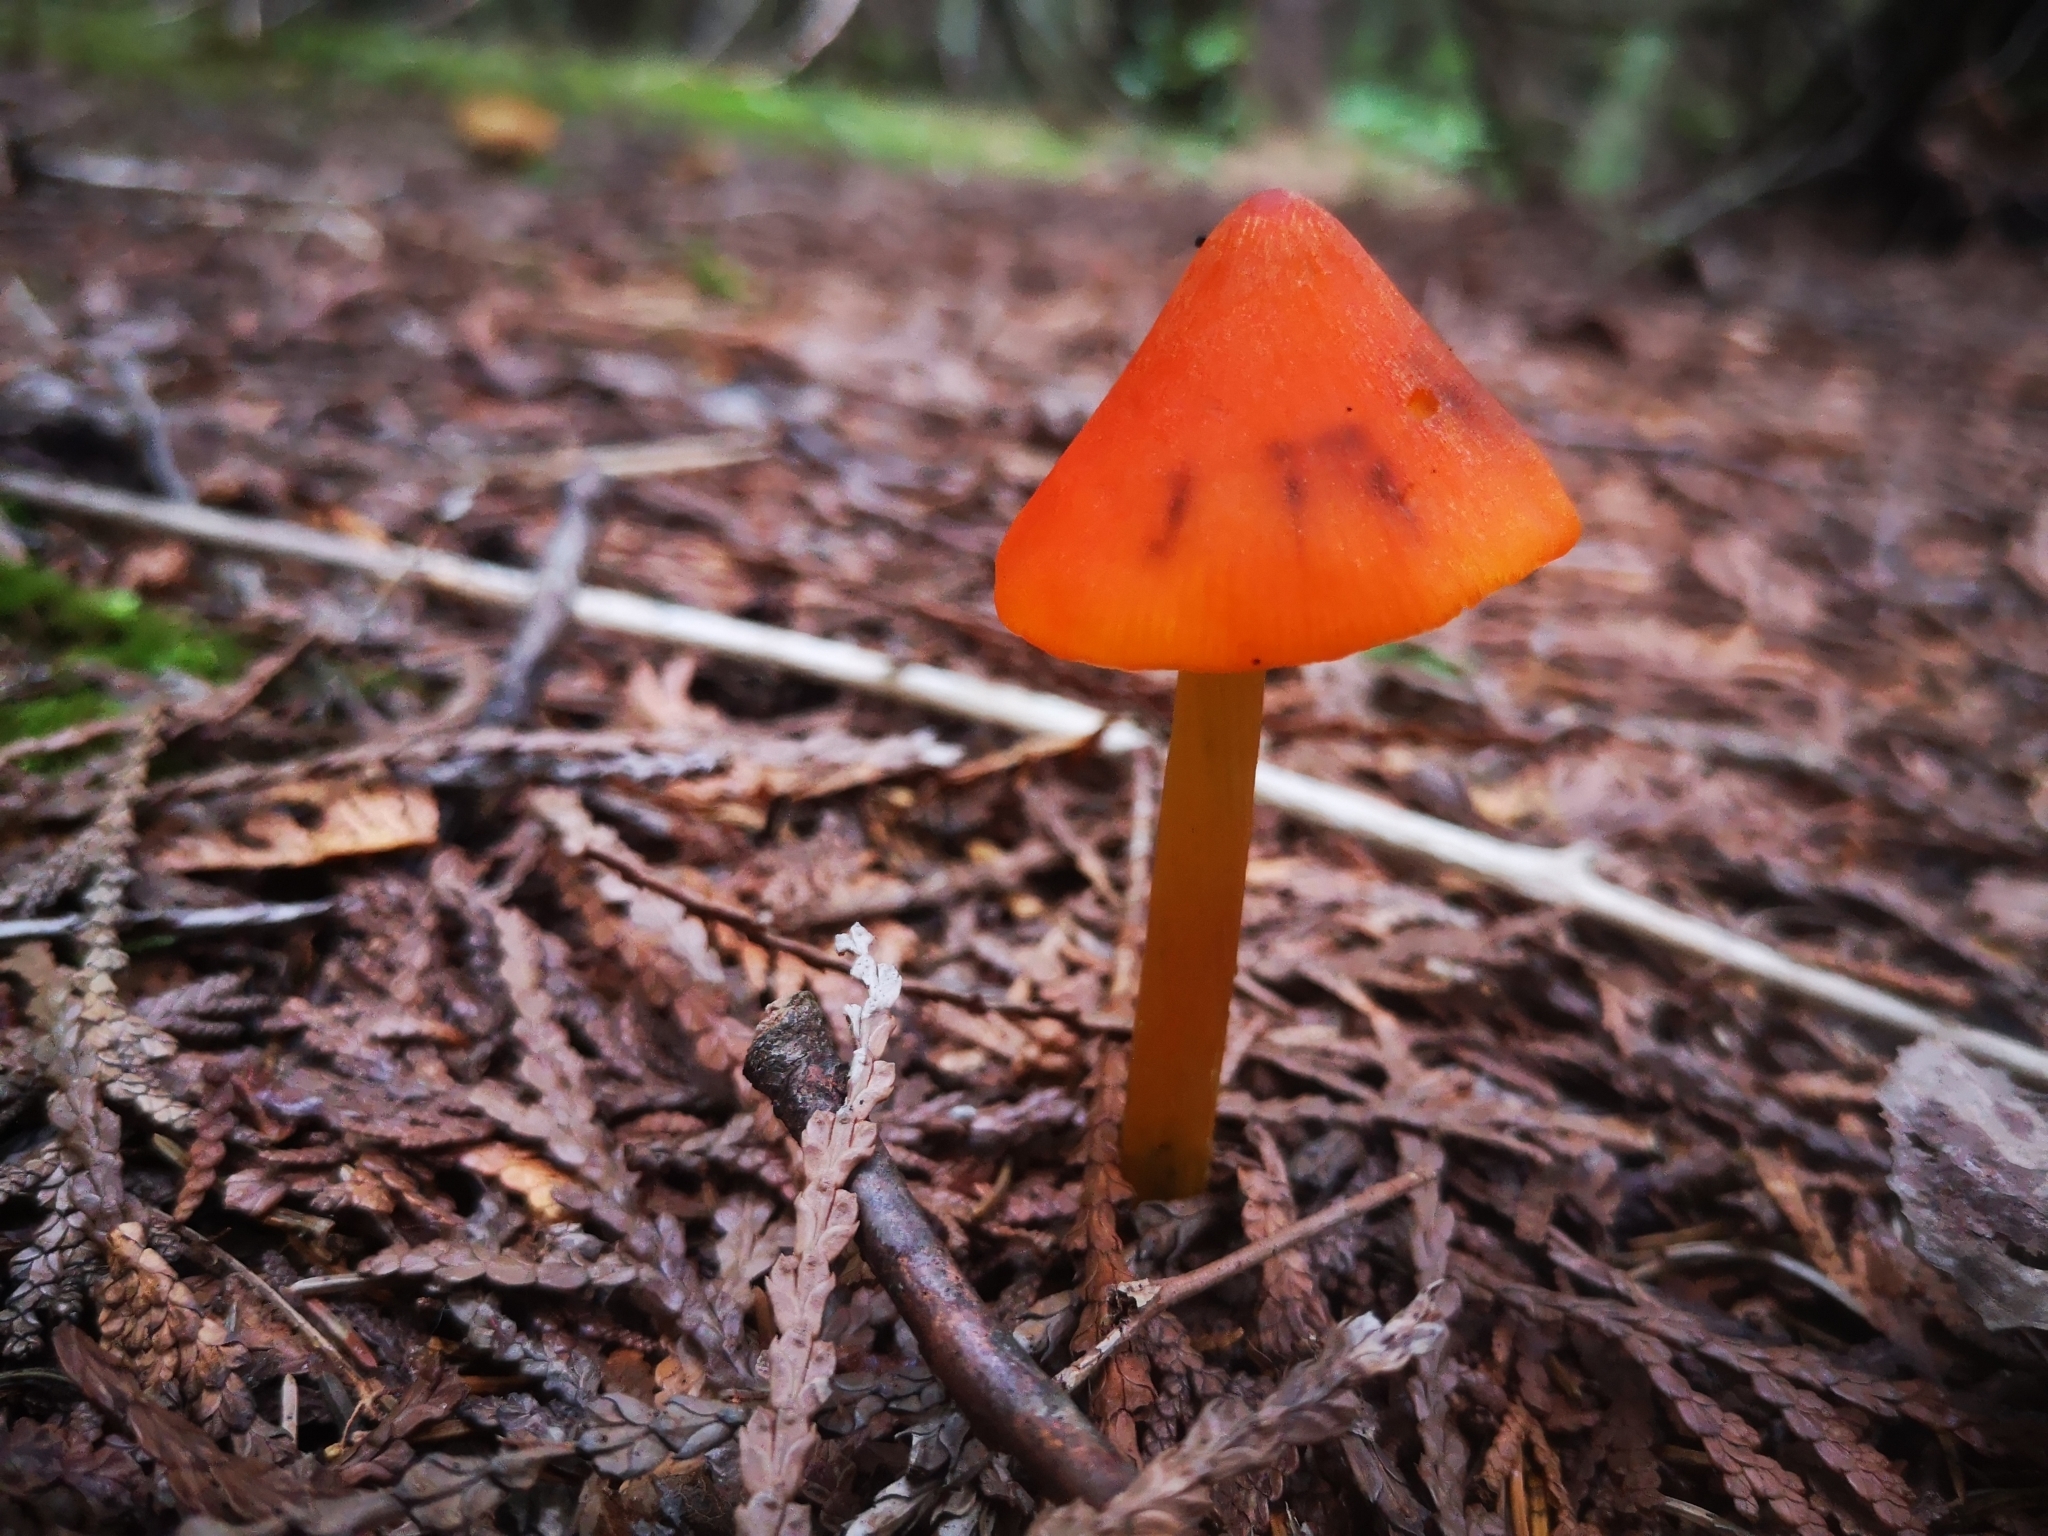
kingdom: Fungi
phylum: Basidiomycota
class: Agaricomycetes
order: Agaricales
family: Hygrophoraceae
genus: Hygrocybe
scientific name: Hygrocybe conica
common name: Blackening wax-cap
